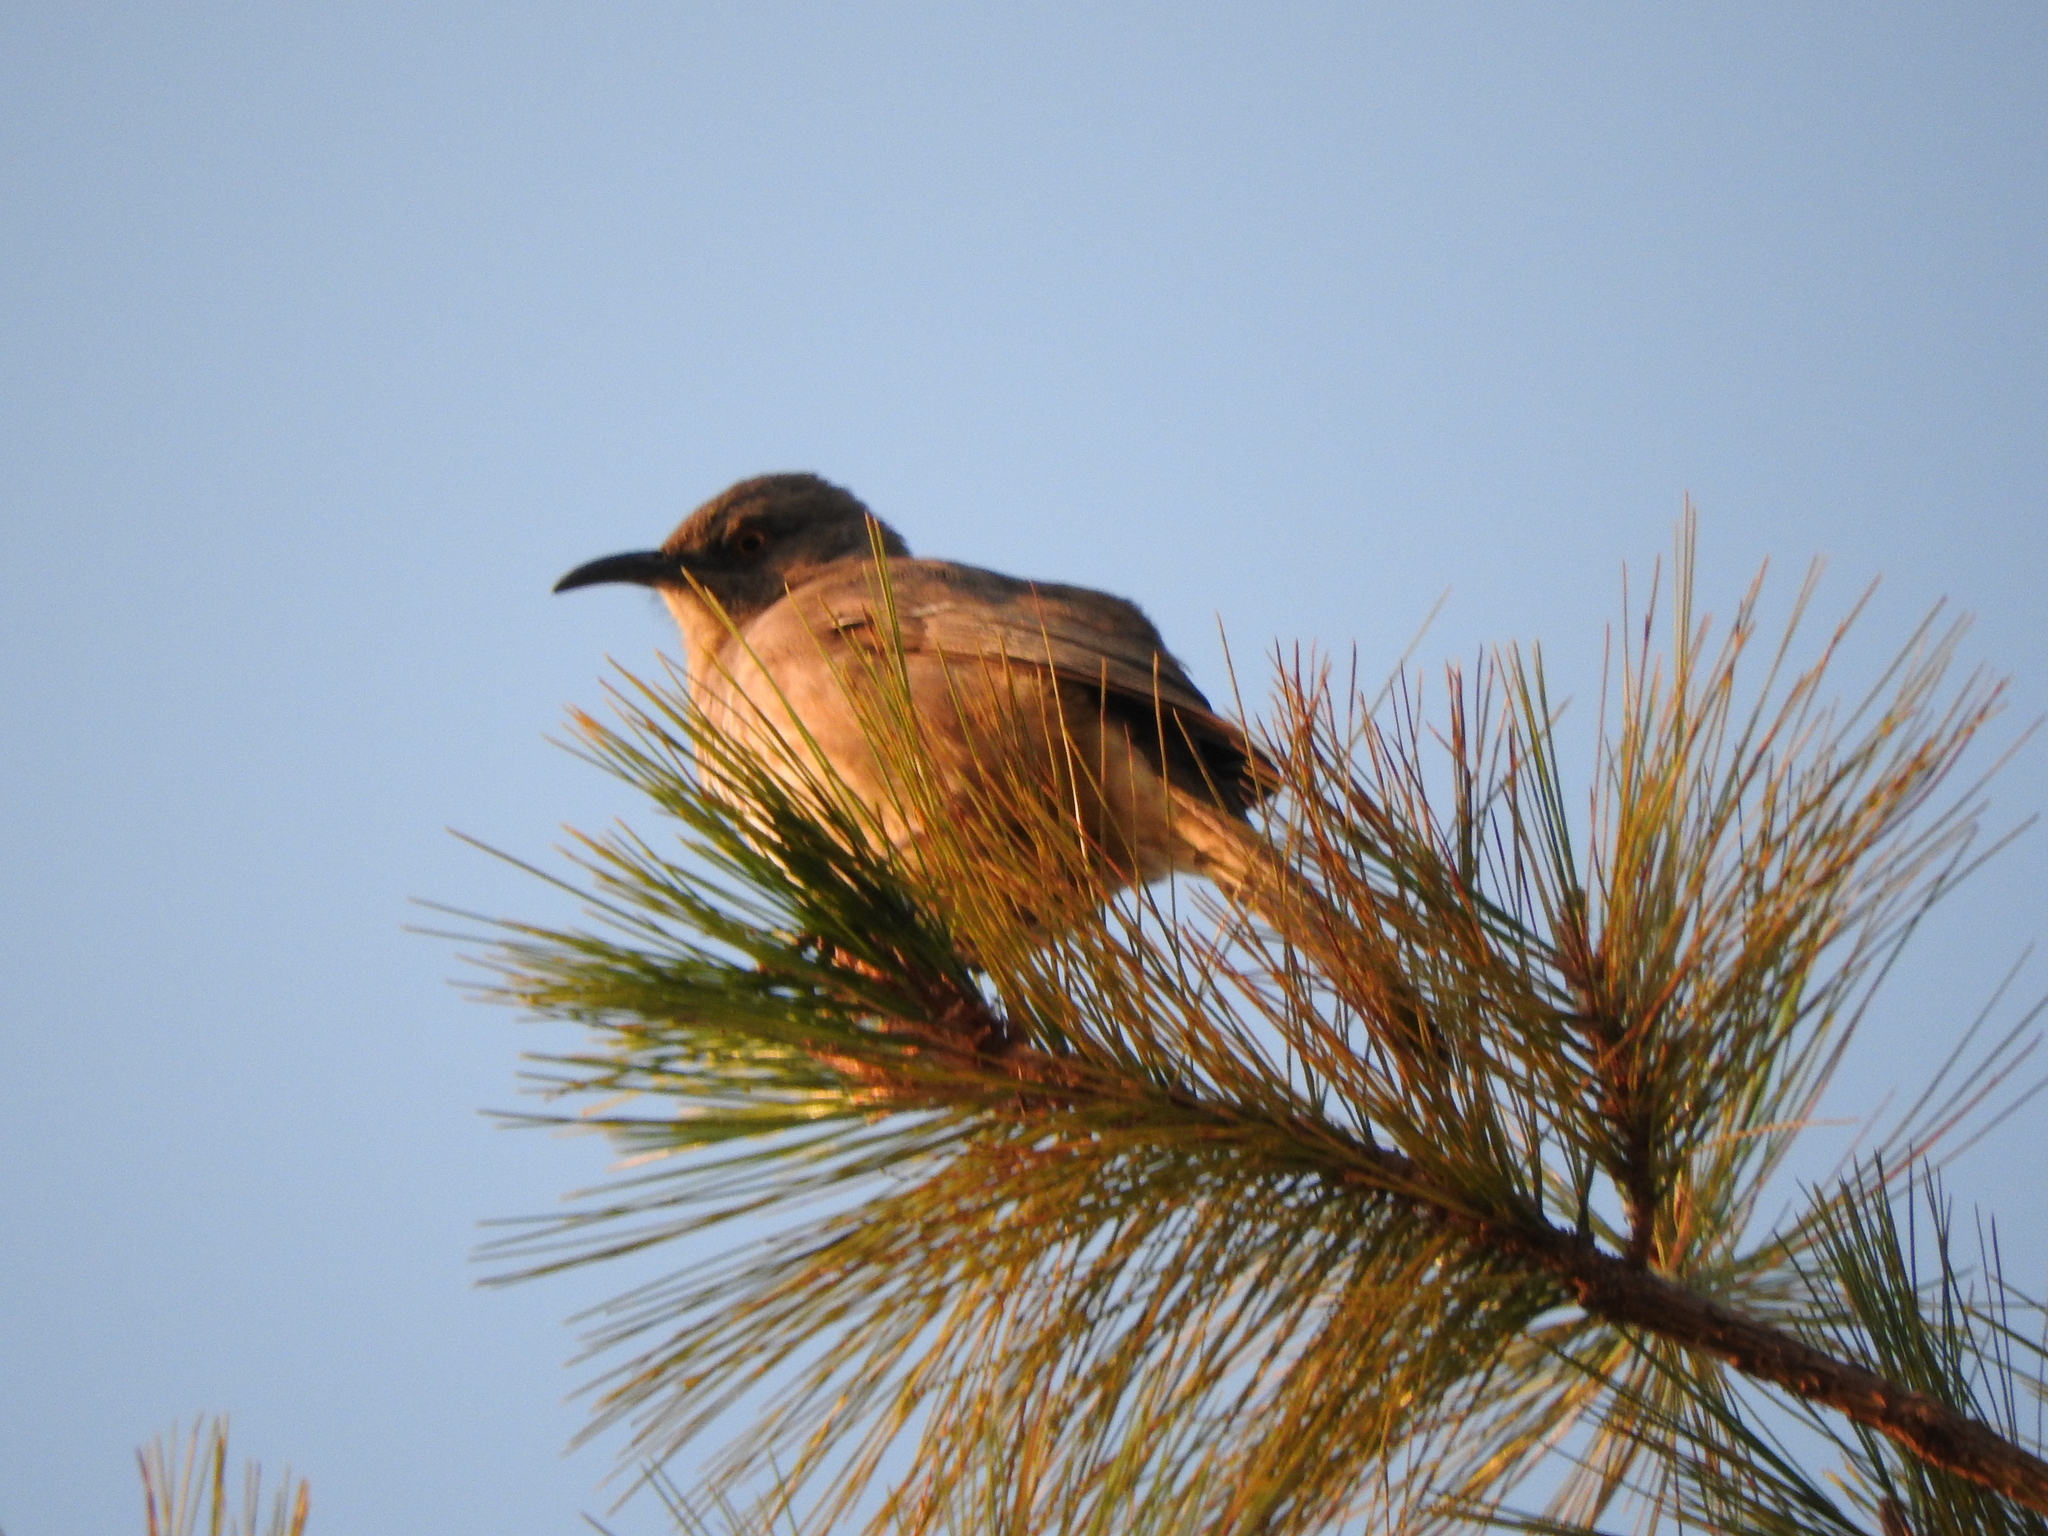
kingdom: Animalia
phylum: Chordata
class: Aves
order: Passeriformes
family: Mimidae
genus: Toxostoma
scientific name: Toxostoma curvirostre
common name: Curve-billed thrasher
